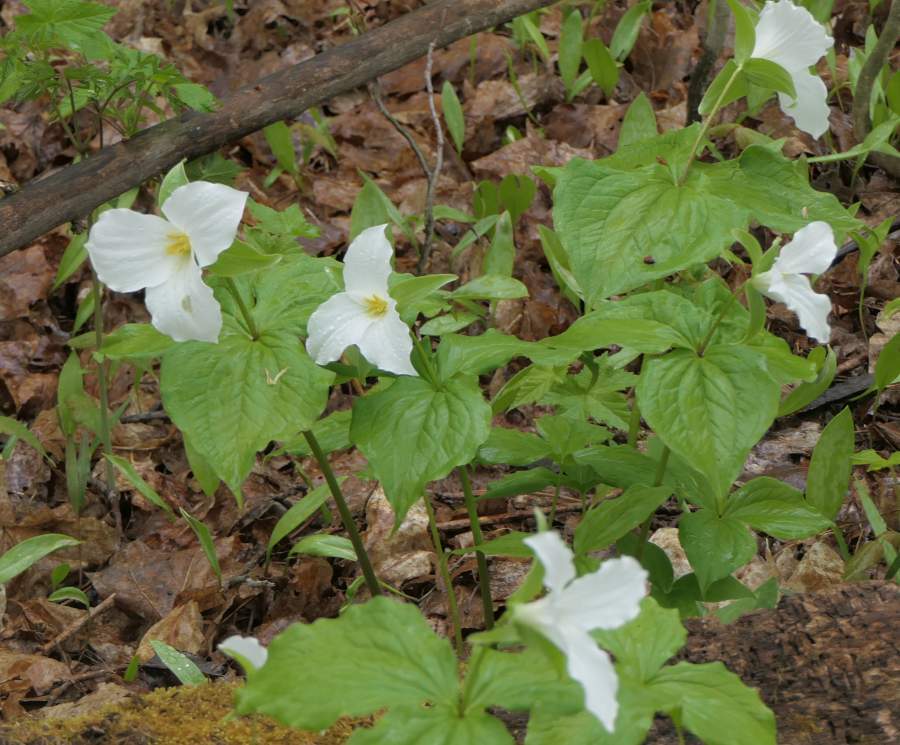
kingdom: Plantae
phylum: Tracheophyta
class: Liliopsida
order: Liliales
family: Melanthiaceae
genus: Trillium
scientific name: Trillium grandiflorum
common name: Great white trillium
